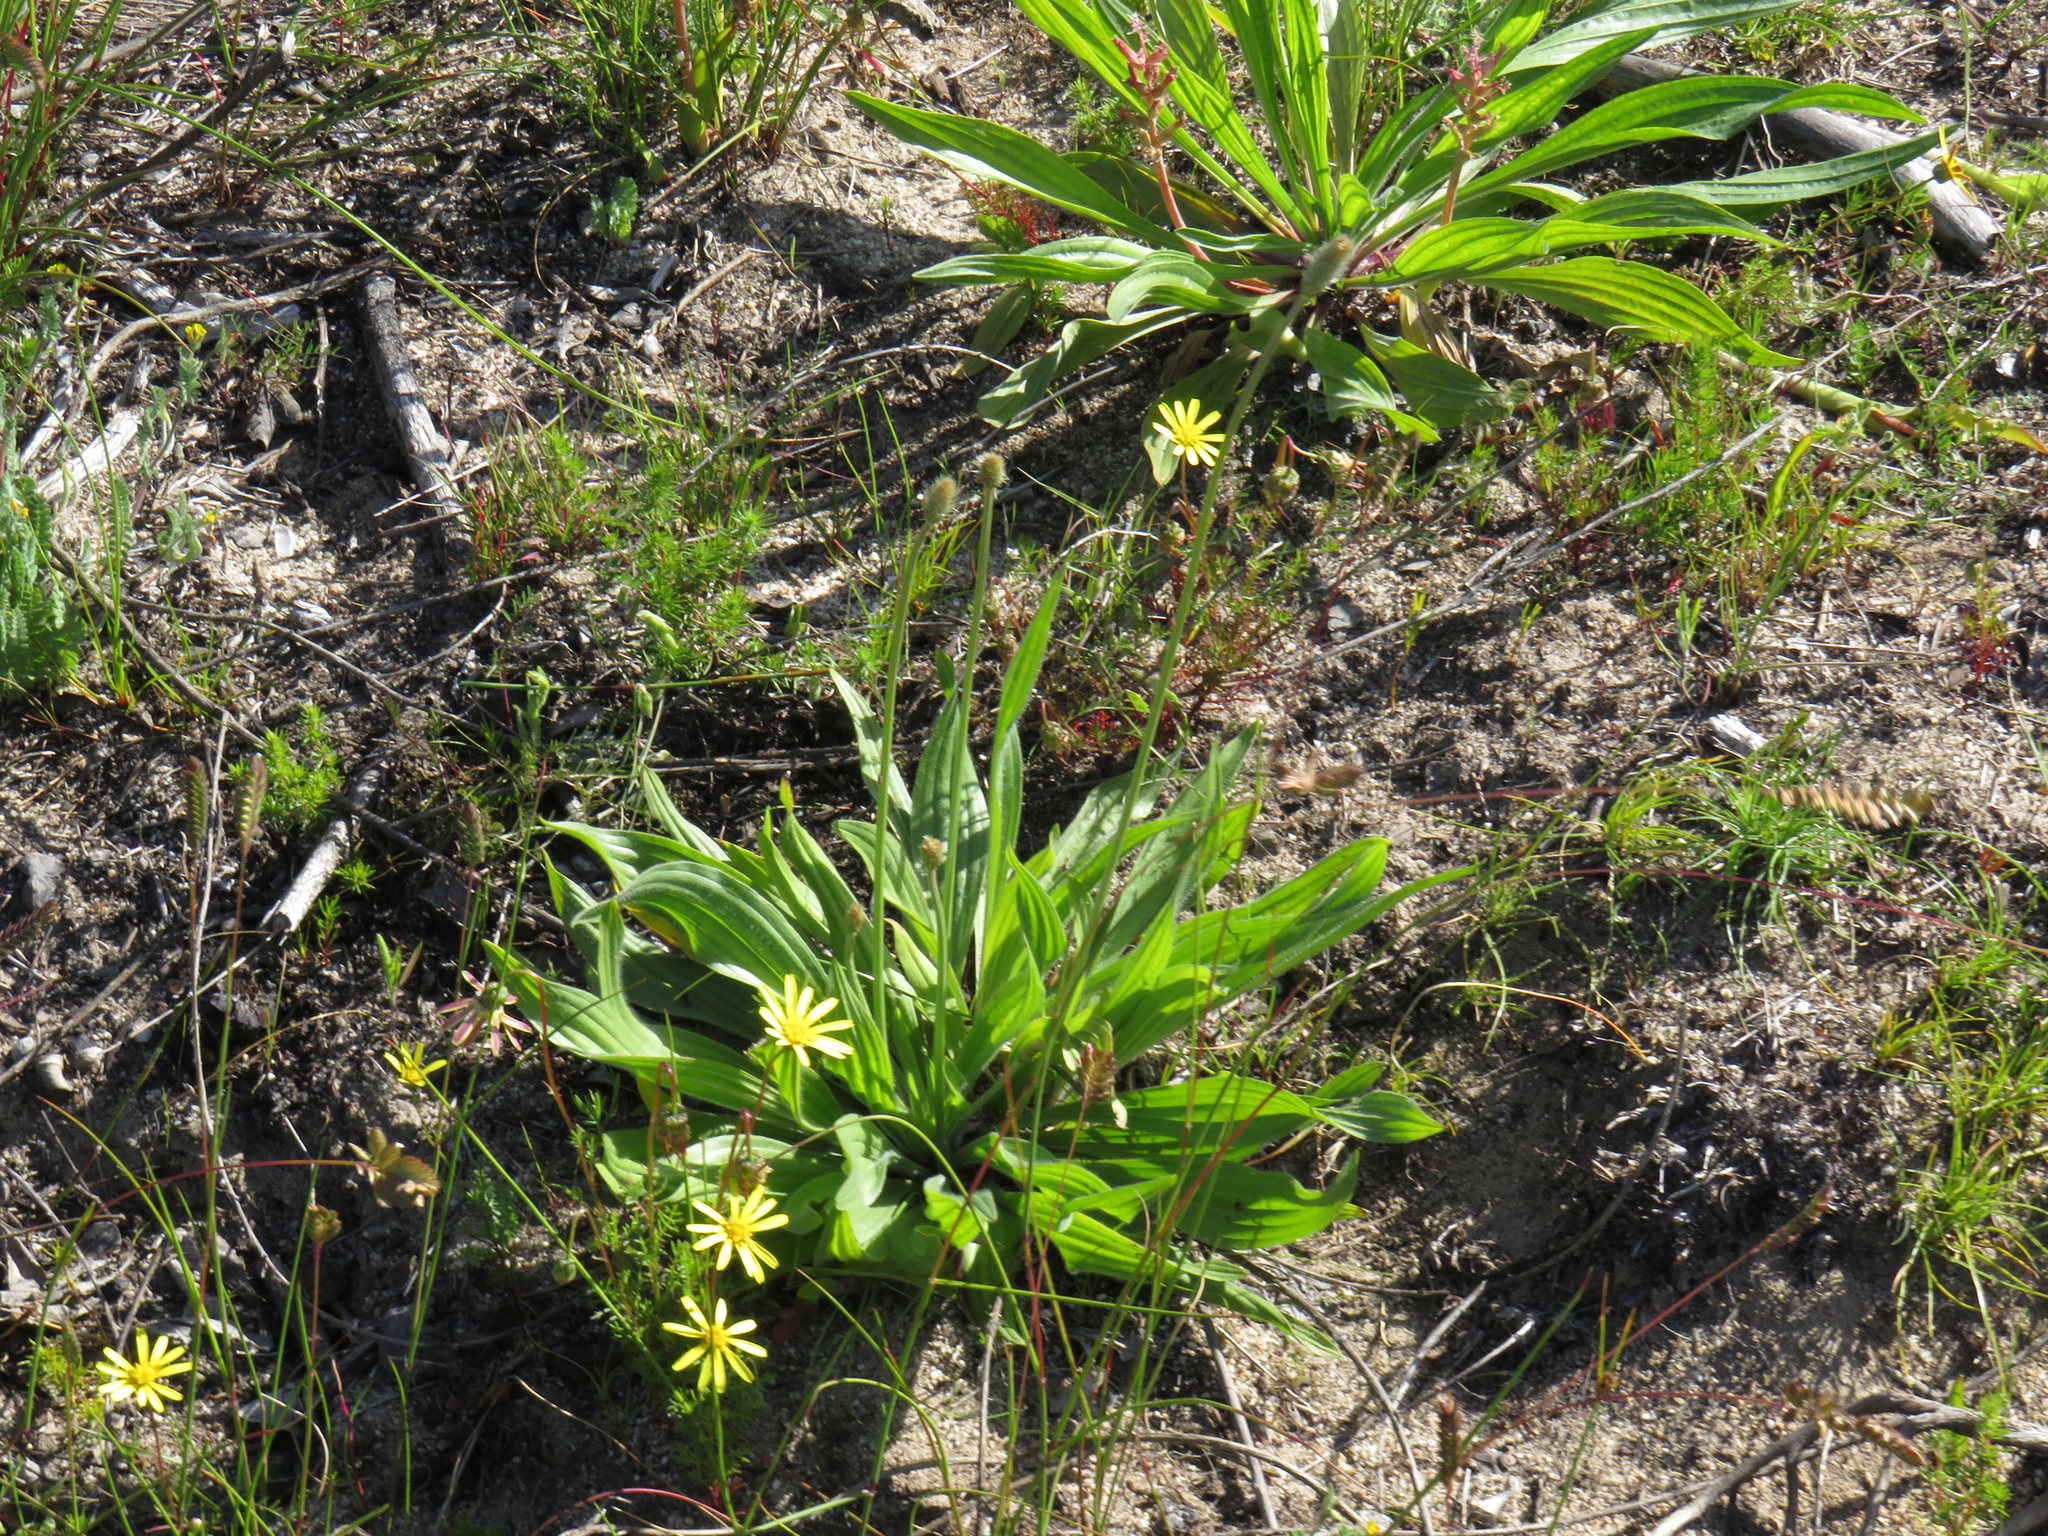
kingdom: Plantae
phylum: Tracheophyta
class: Magnoliopsida
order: Lamiales
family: Plantaginaceae
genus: Plantago
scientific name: Plantago lanceolata
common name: Ribwort plantain
